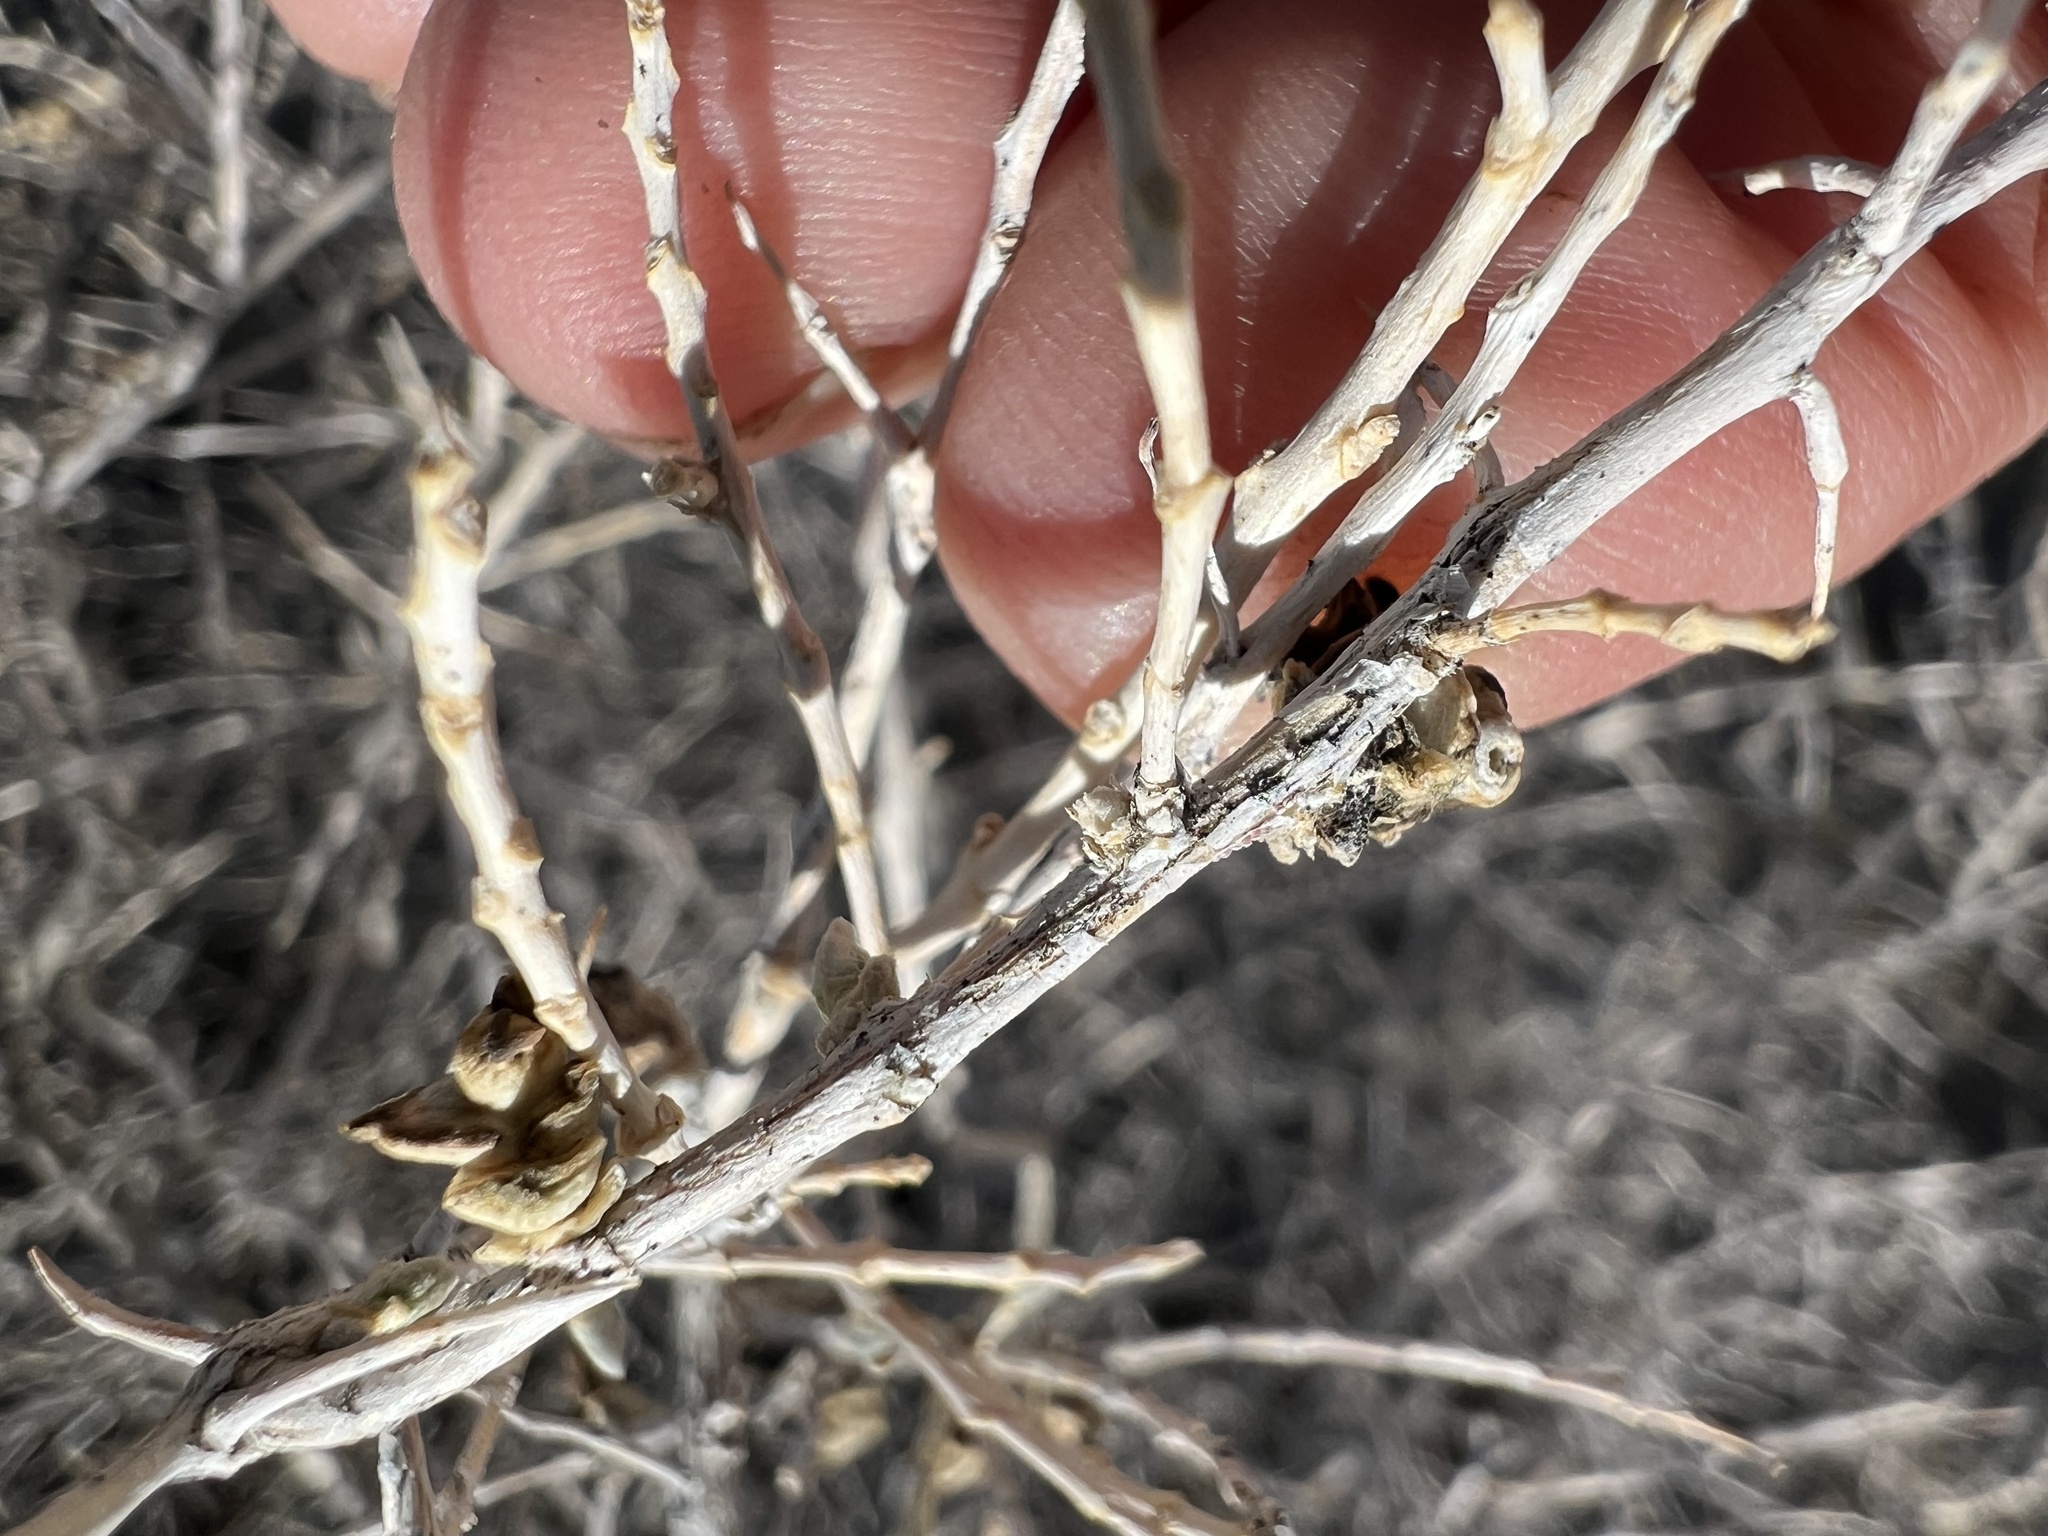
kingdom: Plantae
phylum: Tracheophyta
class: Magnoliopsida
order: Caryophyllales
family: Sarcobataceae
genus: Sarcobatus
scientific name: Sarcobatus vermiculatus
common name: Greasewood
